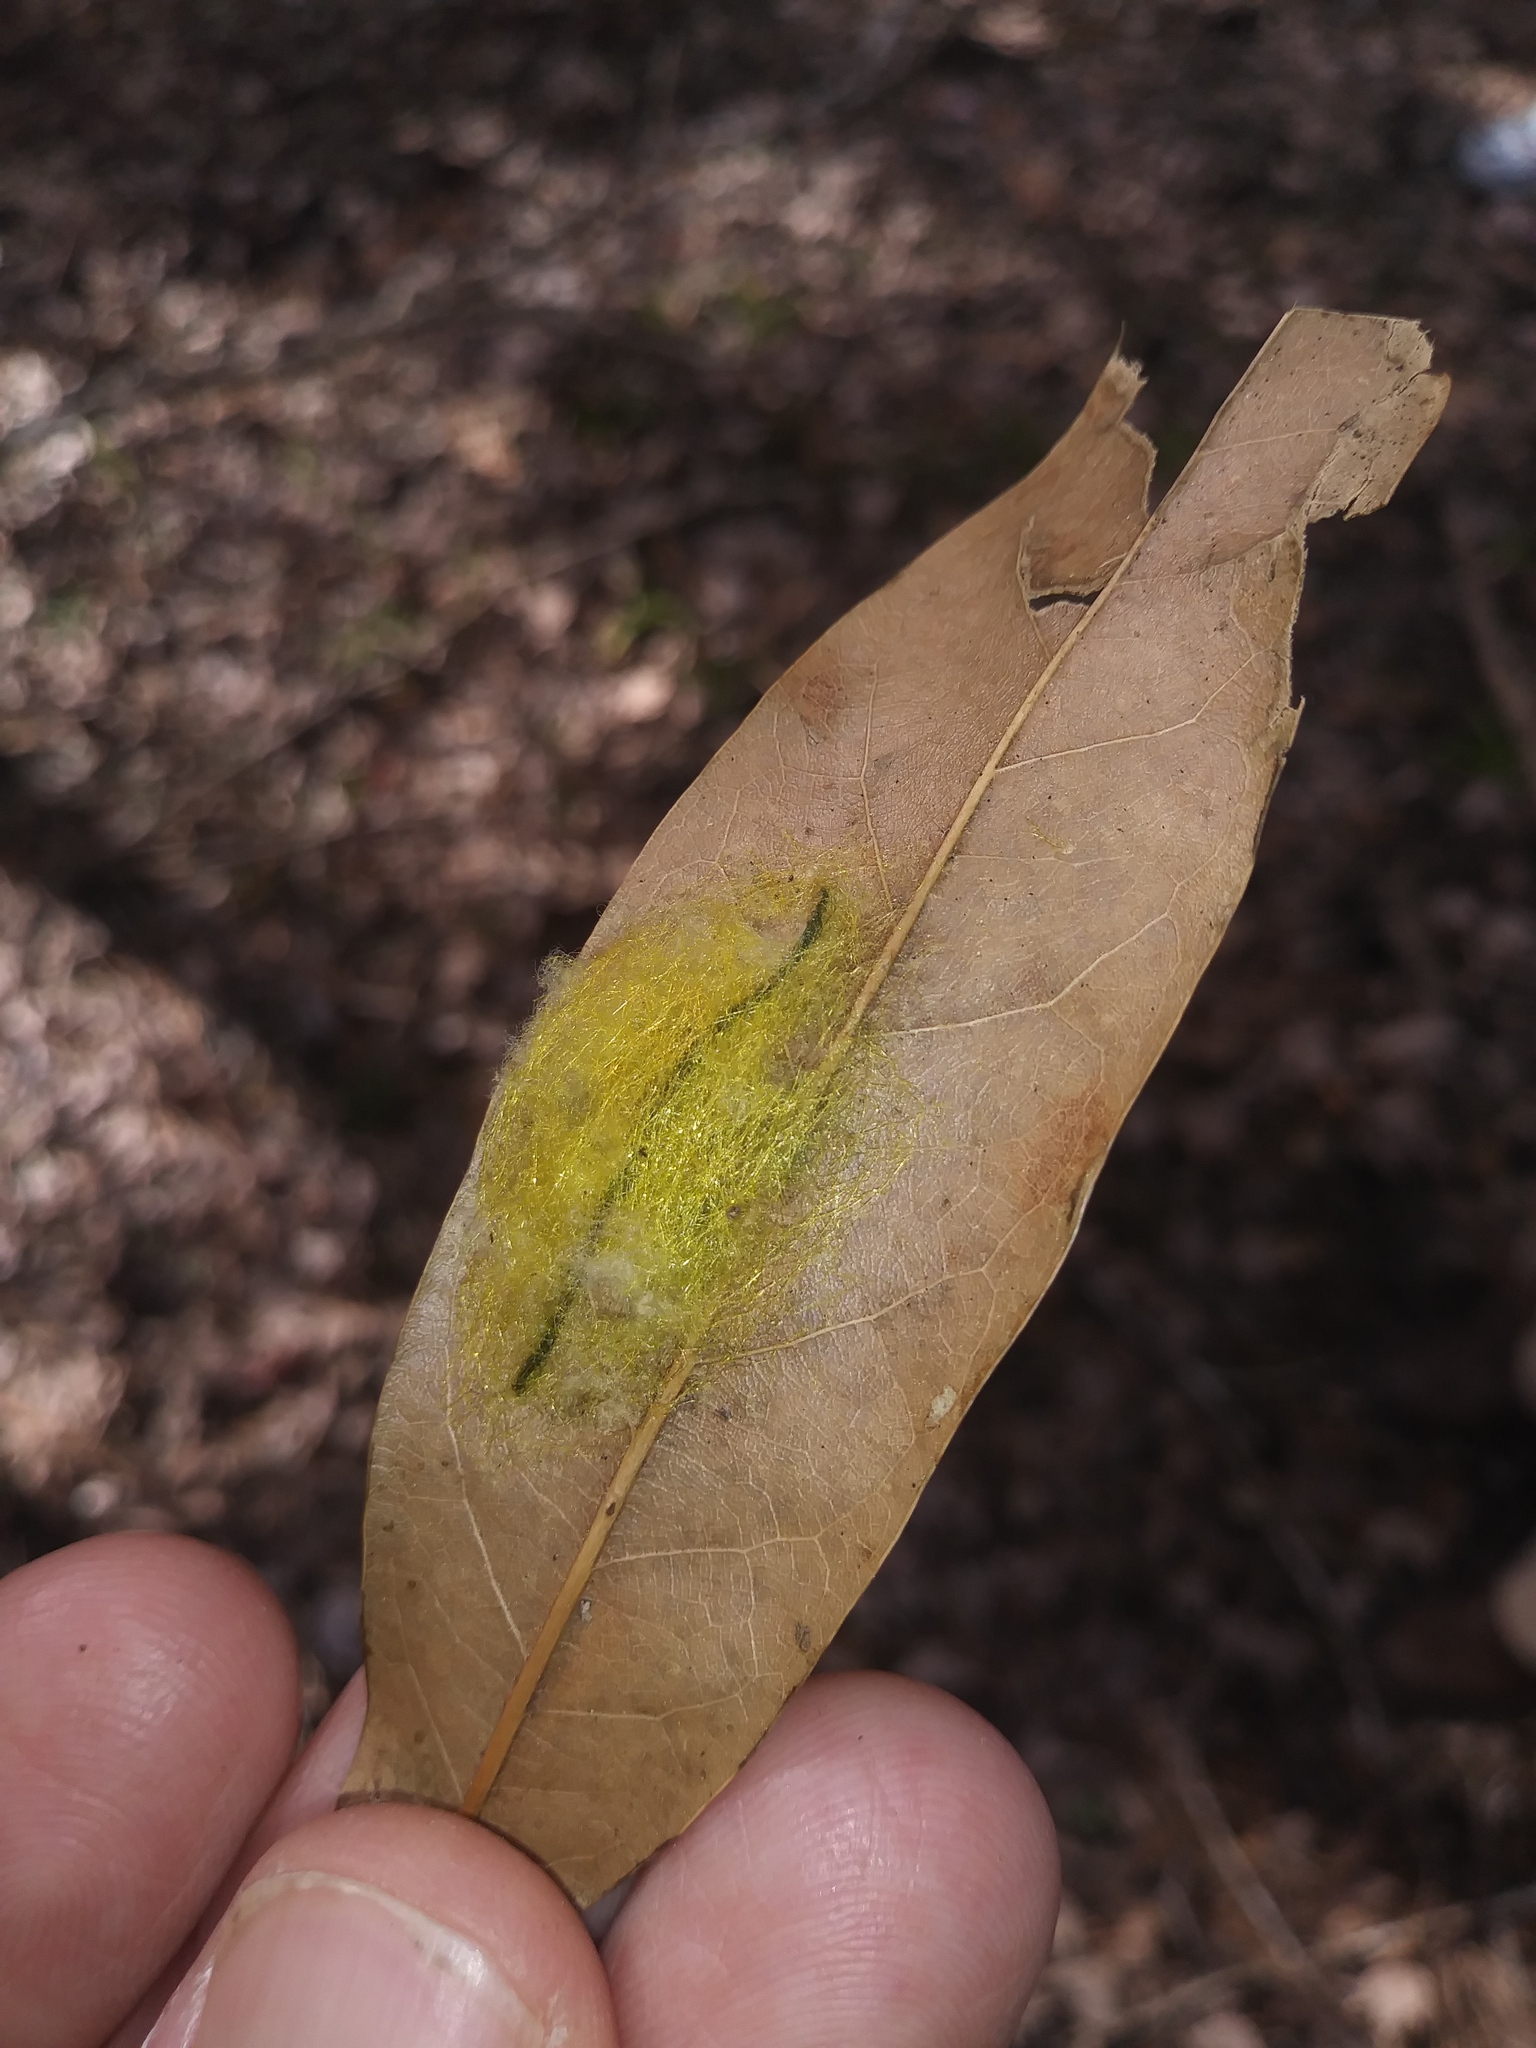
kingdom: Animalia
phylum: Arthropoda
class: Arachnida
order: Araneae
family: Araneidae
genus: Gasteracantha
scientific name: Gasteracantha cancriformis
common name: Orb weavers
